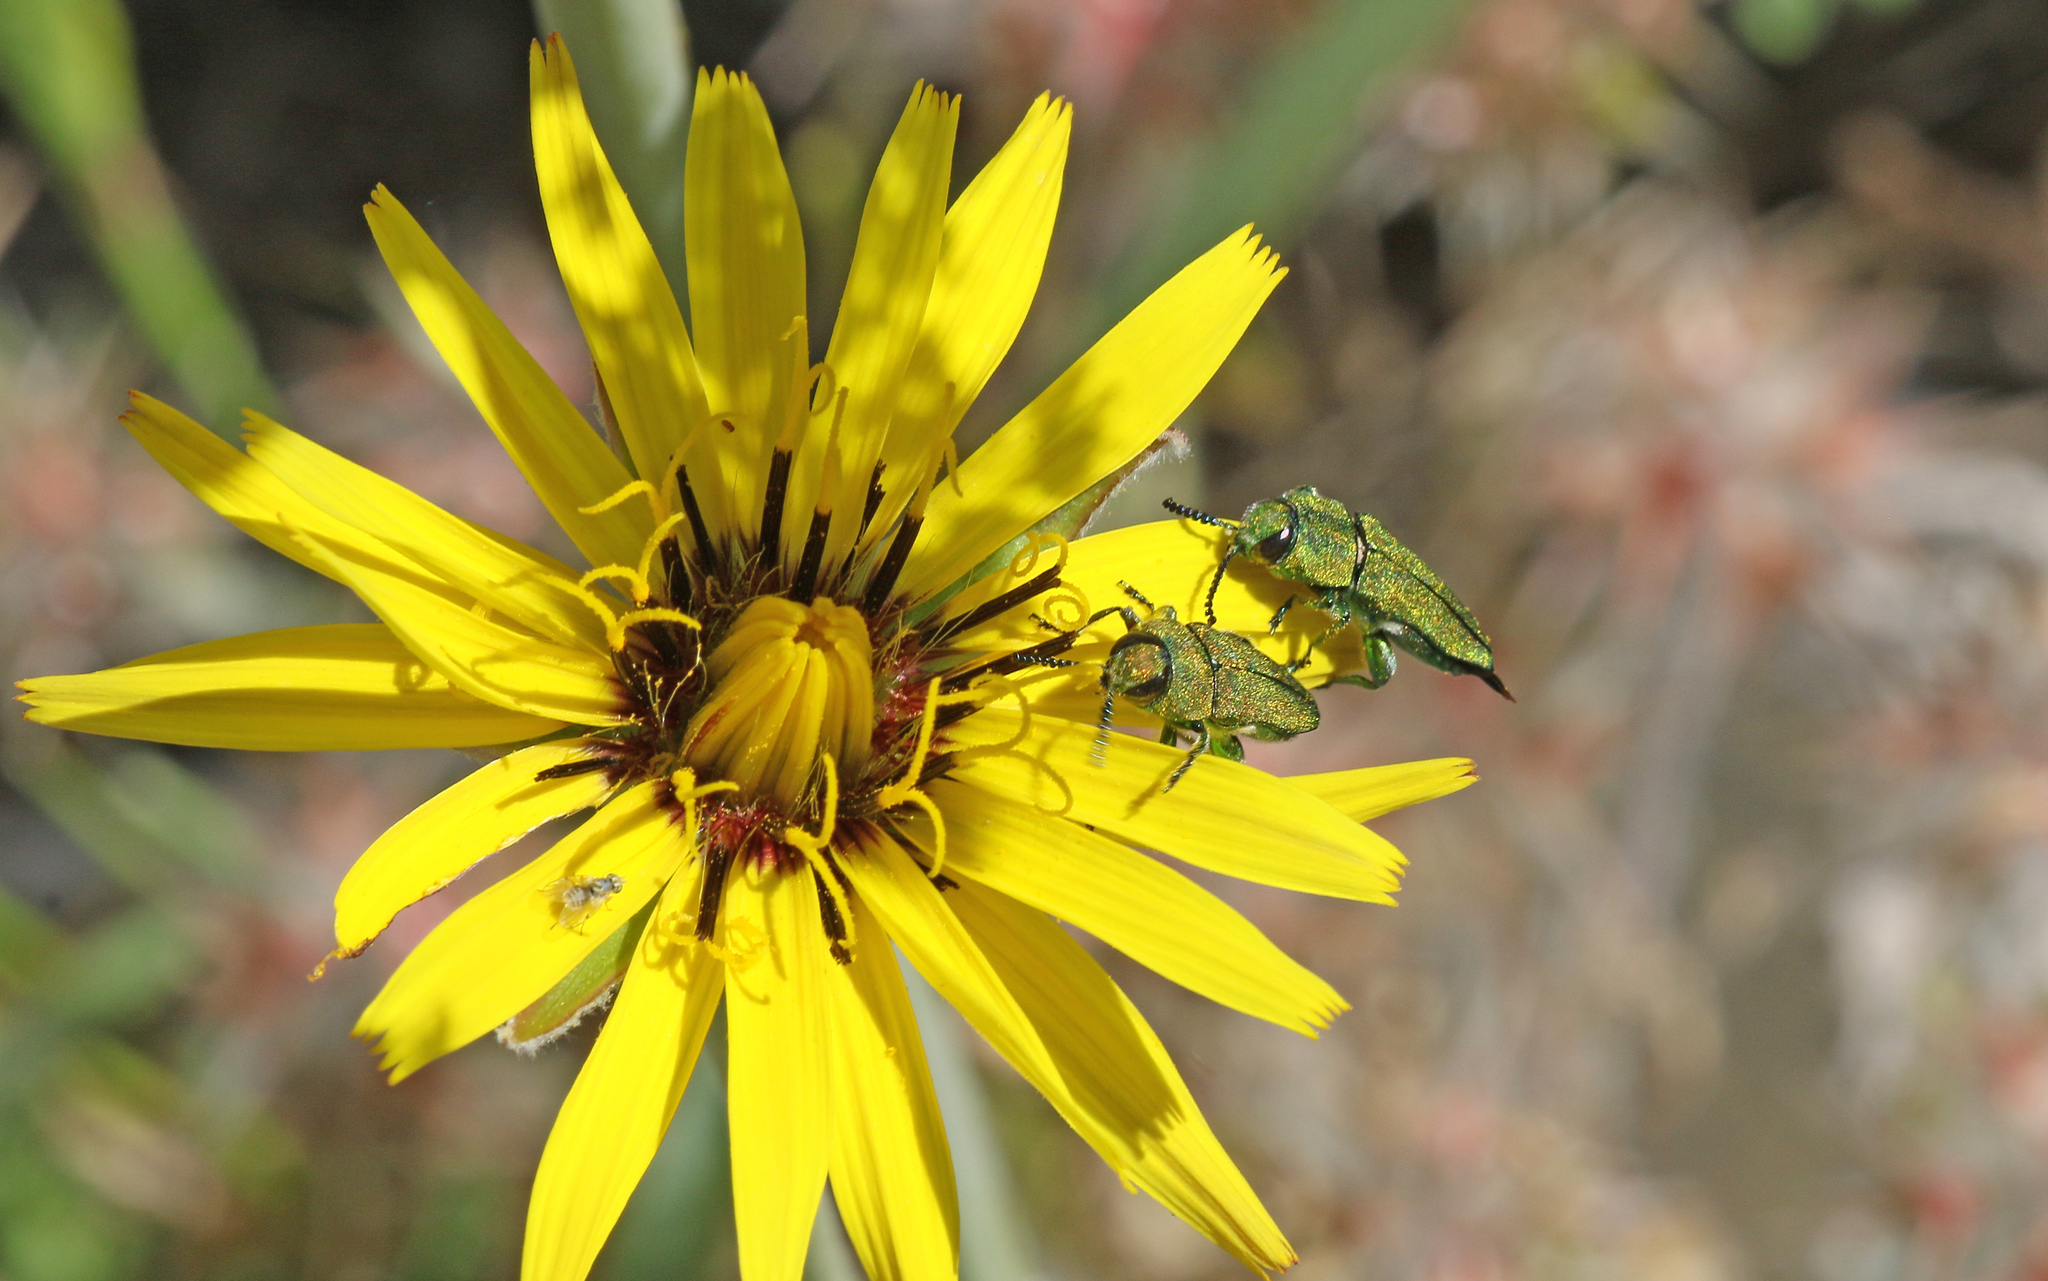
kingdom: Animalia
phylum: Arthropoda
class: Insecta
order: Coleoptera
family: Buprestidae
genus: Anthaxia
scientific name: Anthaxia hungarica
